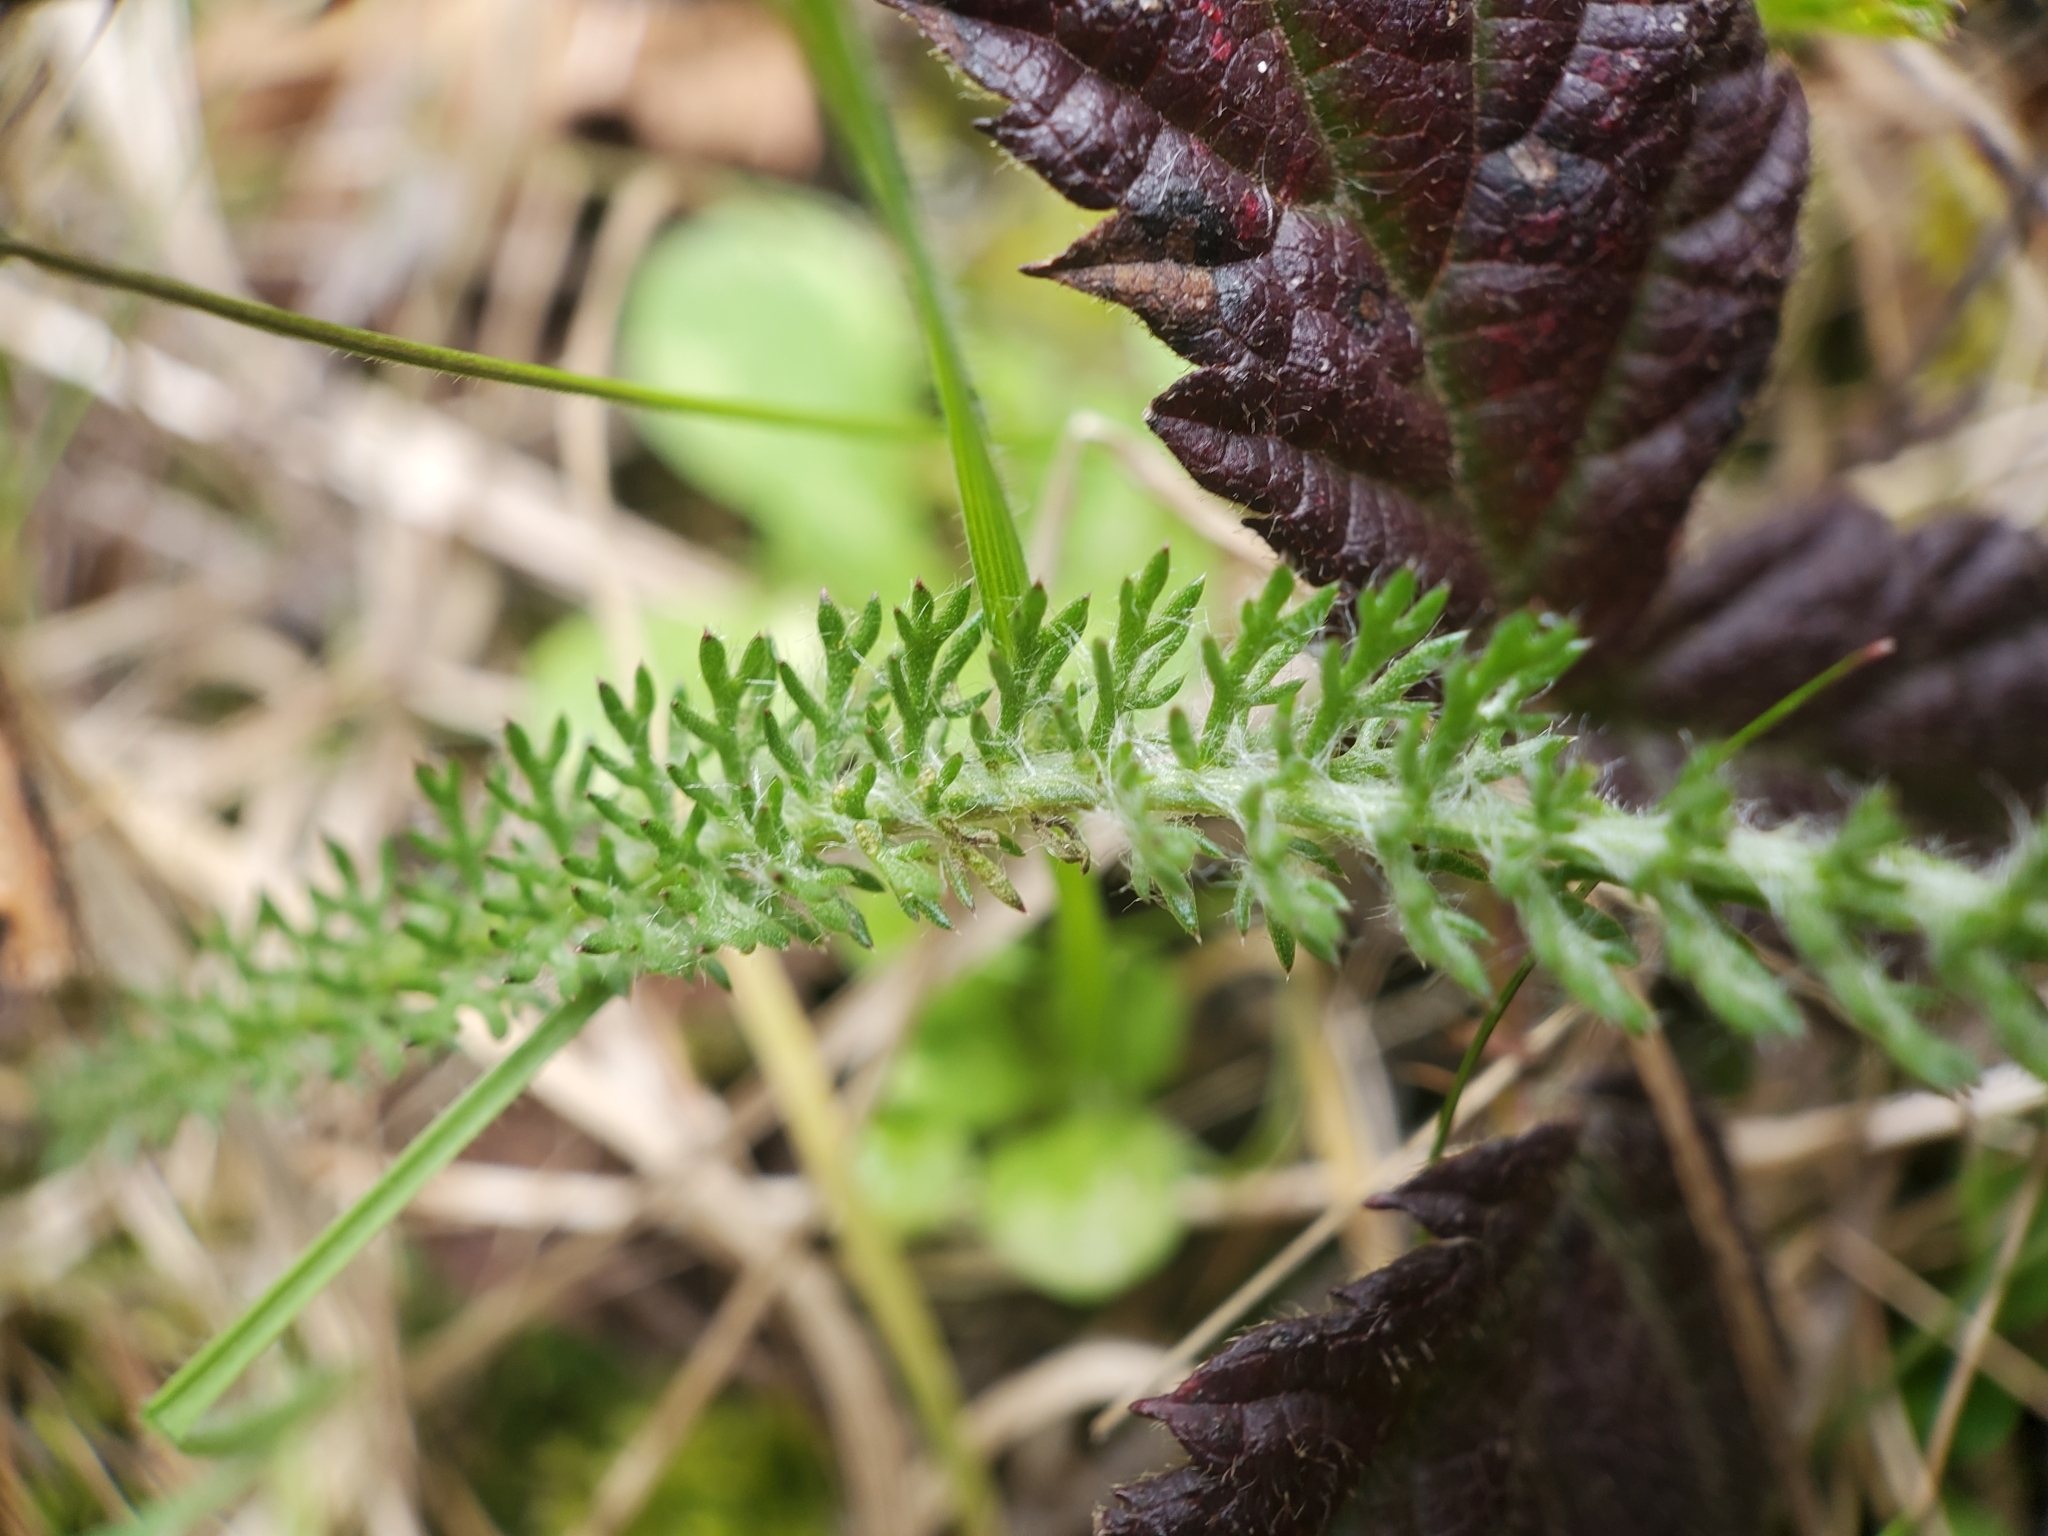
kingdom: Plantae
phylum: Tracheophyta
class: Magnoliopsida
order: Asterales
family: Asteraceae
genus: Achillea
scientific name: Achillea millefolium
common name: Yarrow
